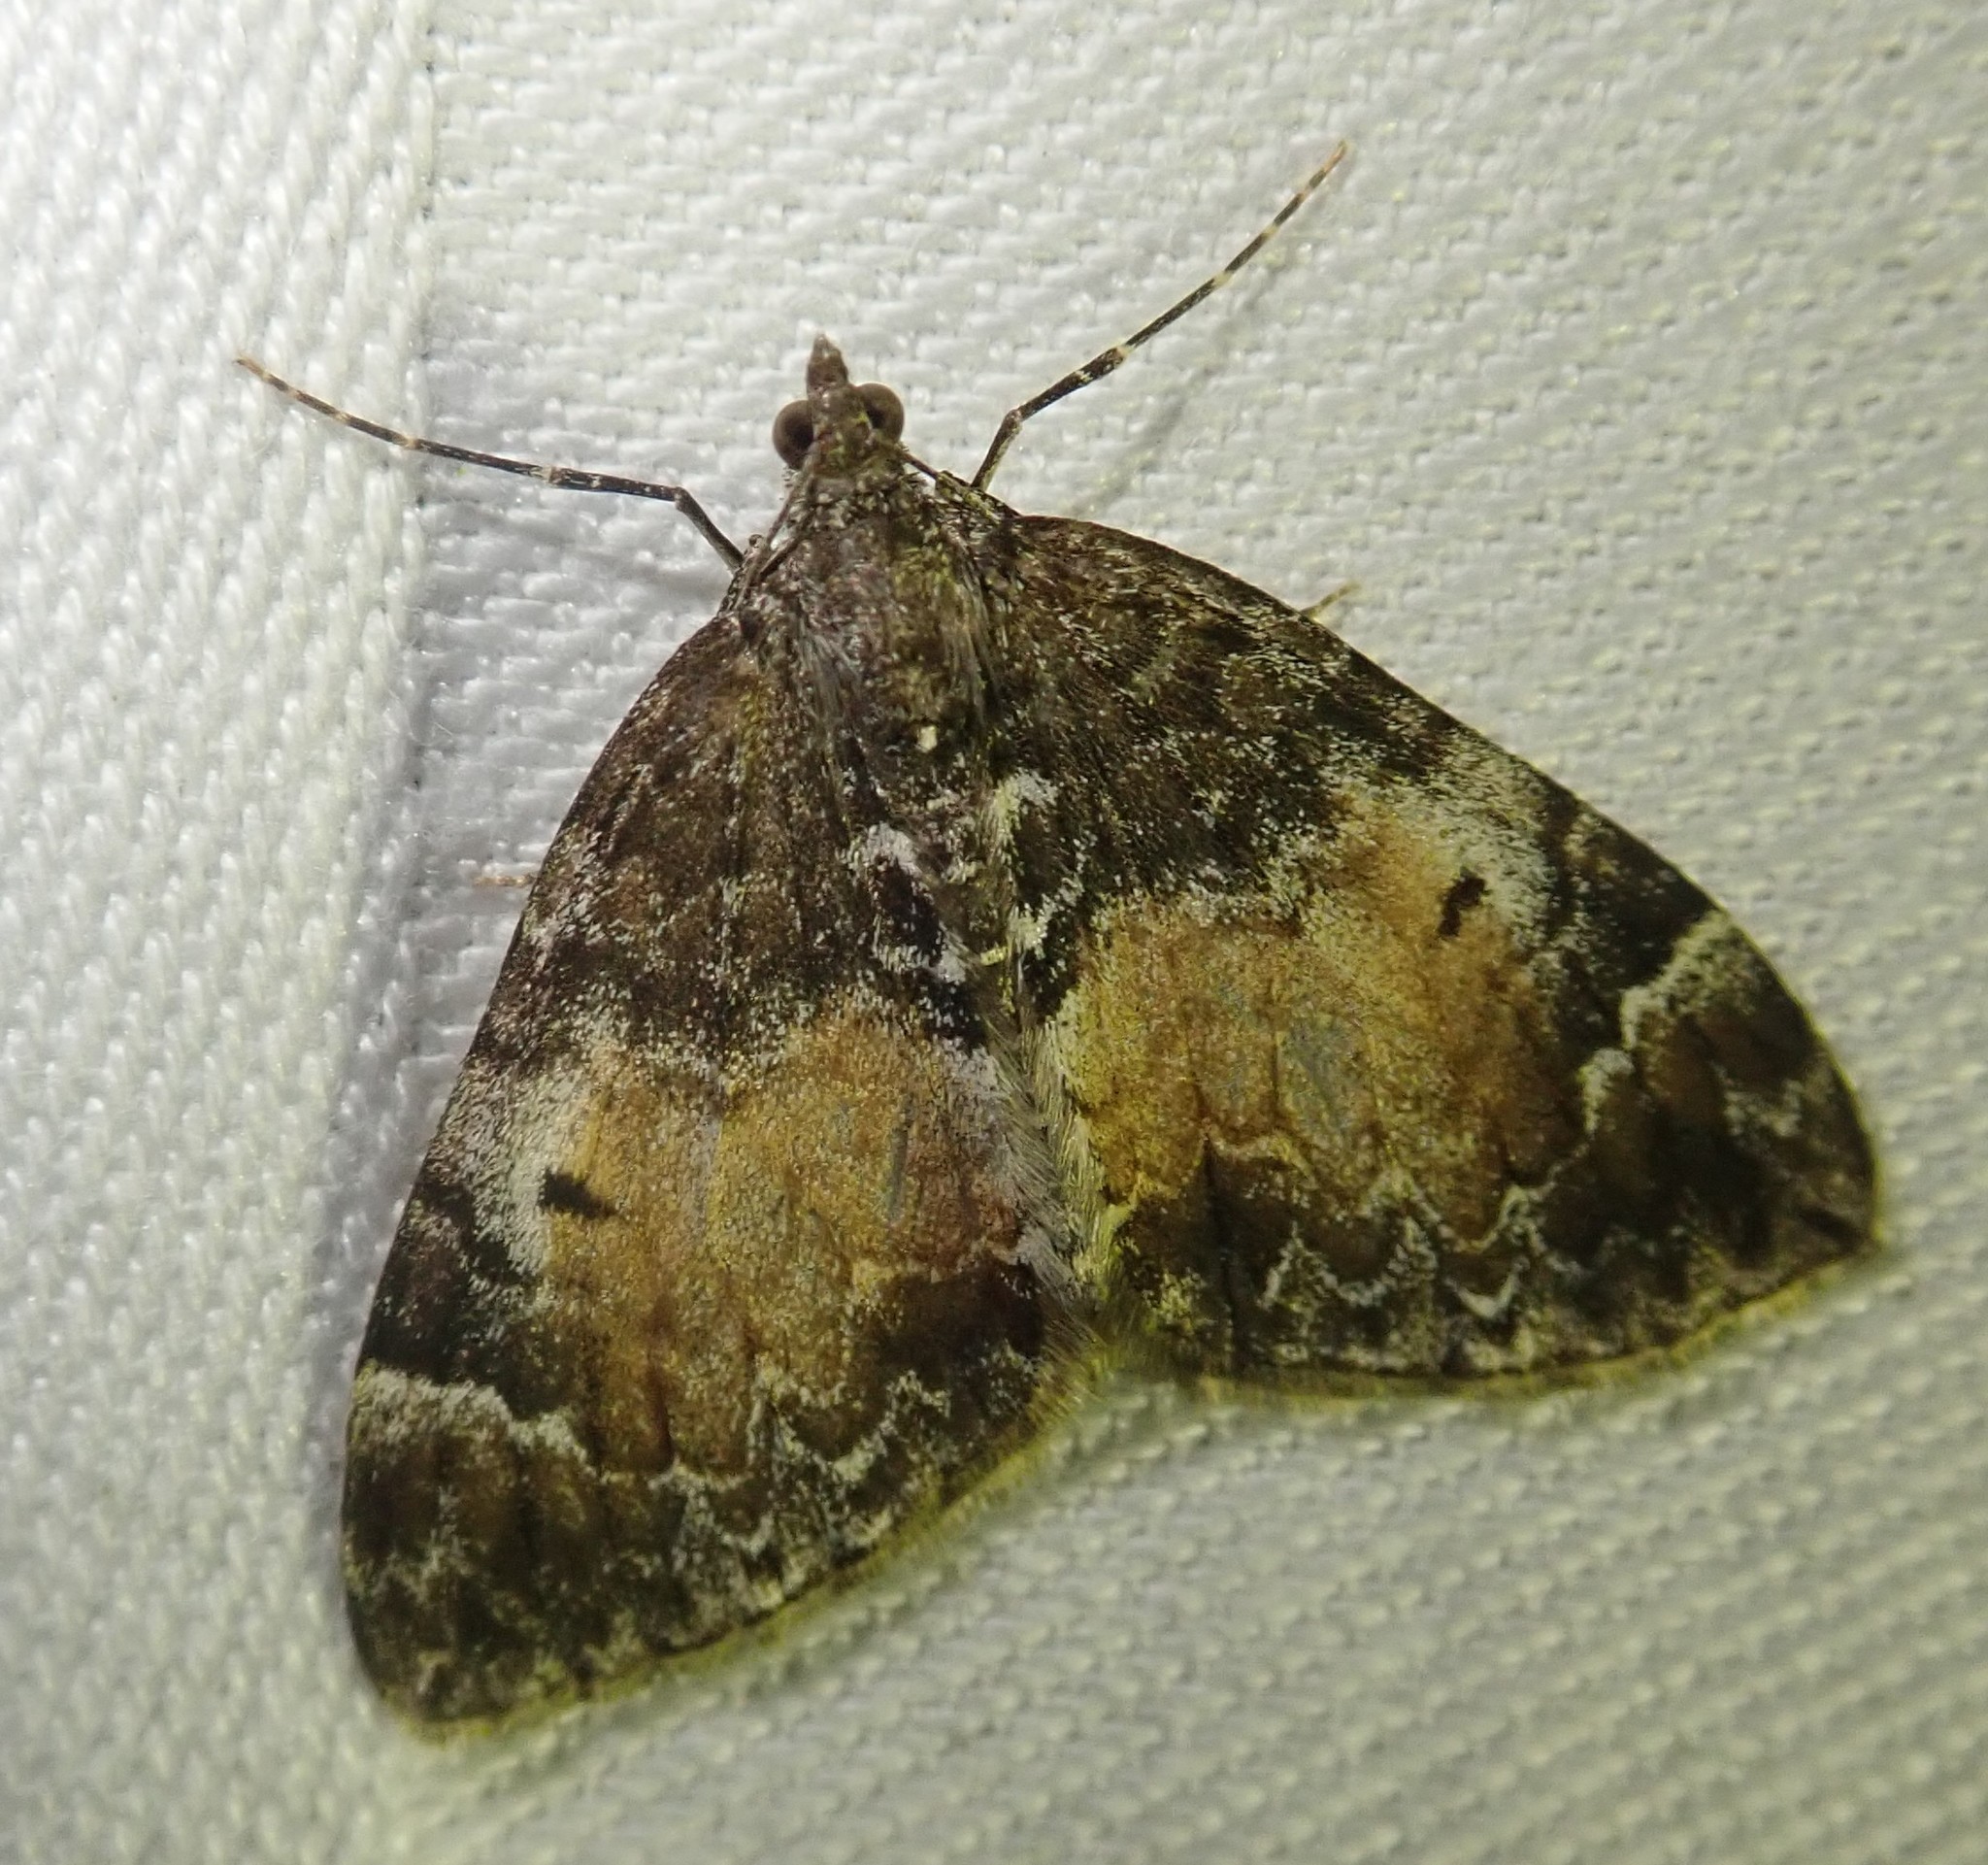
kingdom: Animalia
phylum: Arthropoda
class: Insecta
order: Lepidoptera
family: Geometridae
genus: Dysstroma
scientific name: Dysstroma truncata
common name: Common marbled carpet
